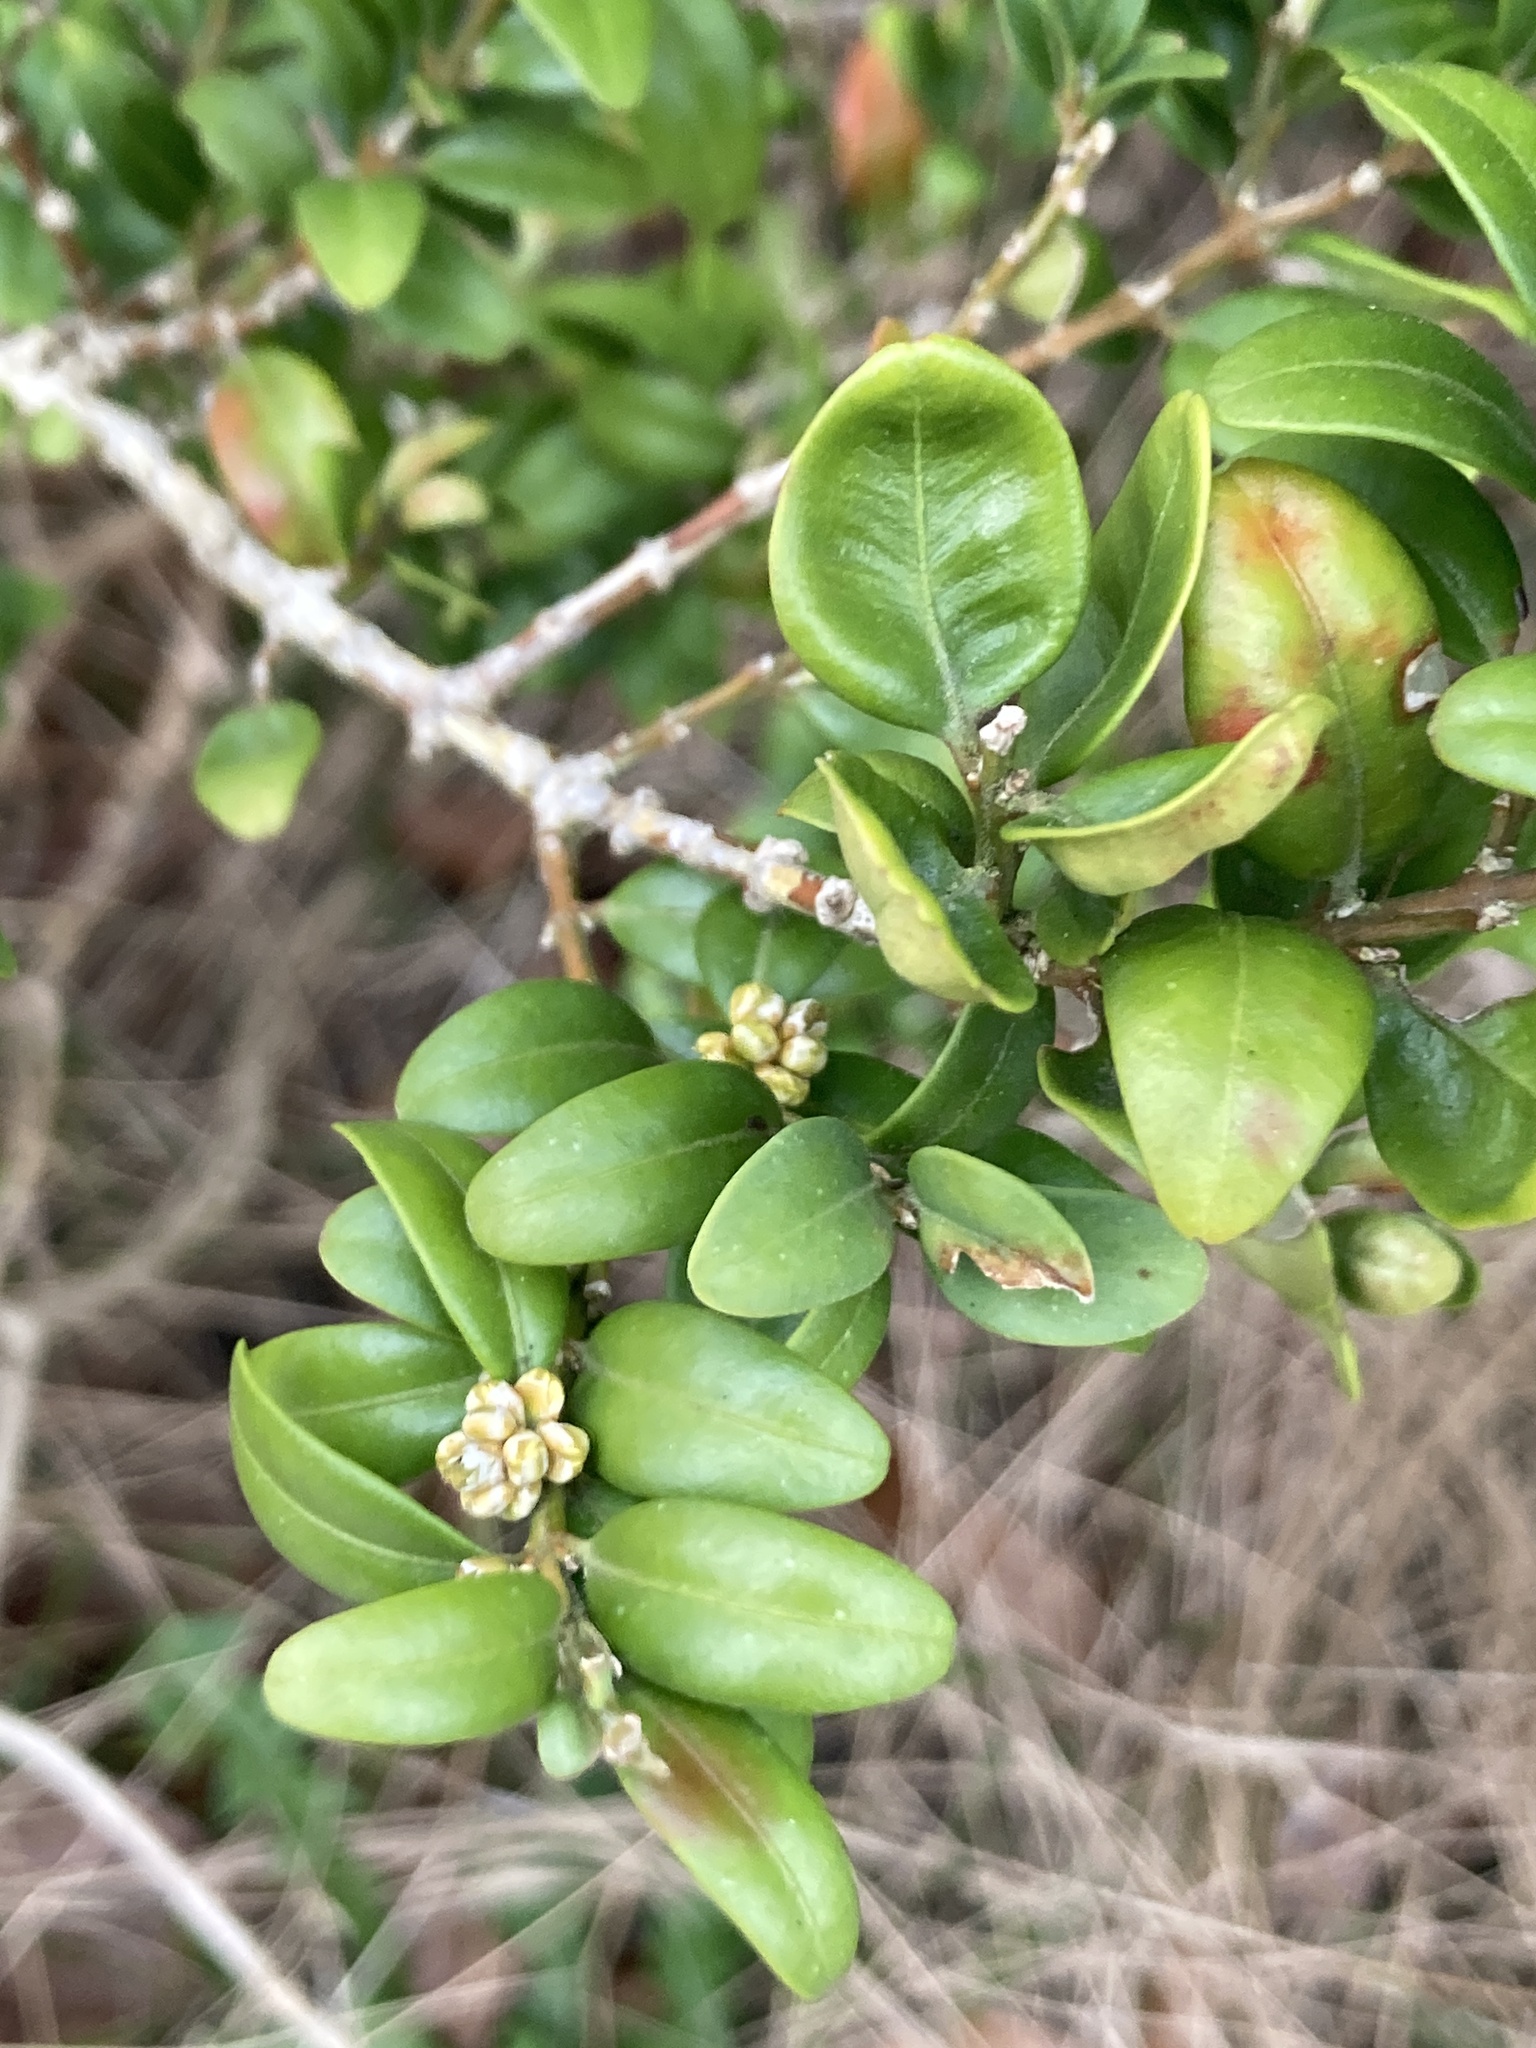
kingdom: Plantae
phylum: Tracheophyta
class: Magnoliopsida
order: Buxales
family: Buxaceae
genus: Buxus
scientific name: Buxus sempervirens
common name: Box
